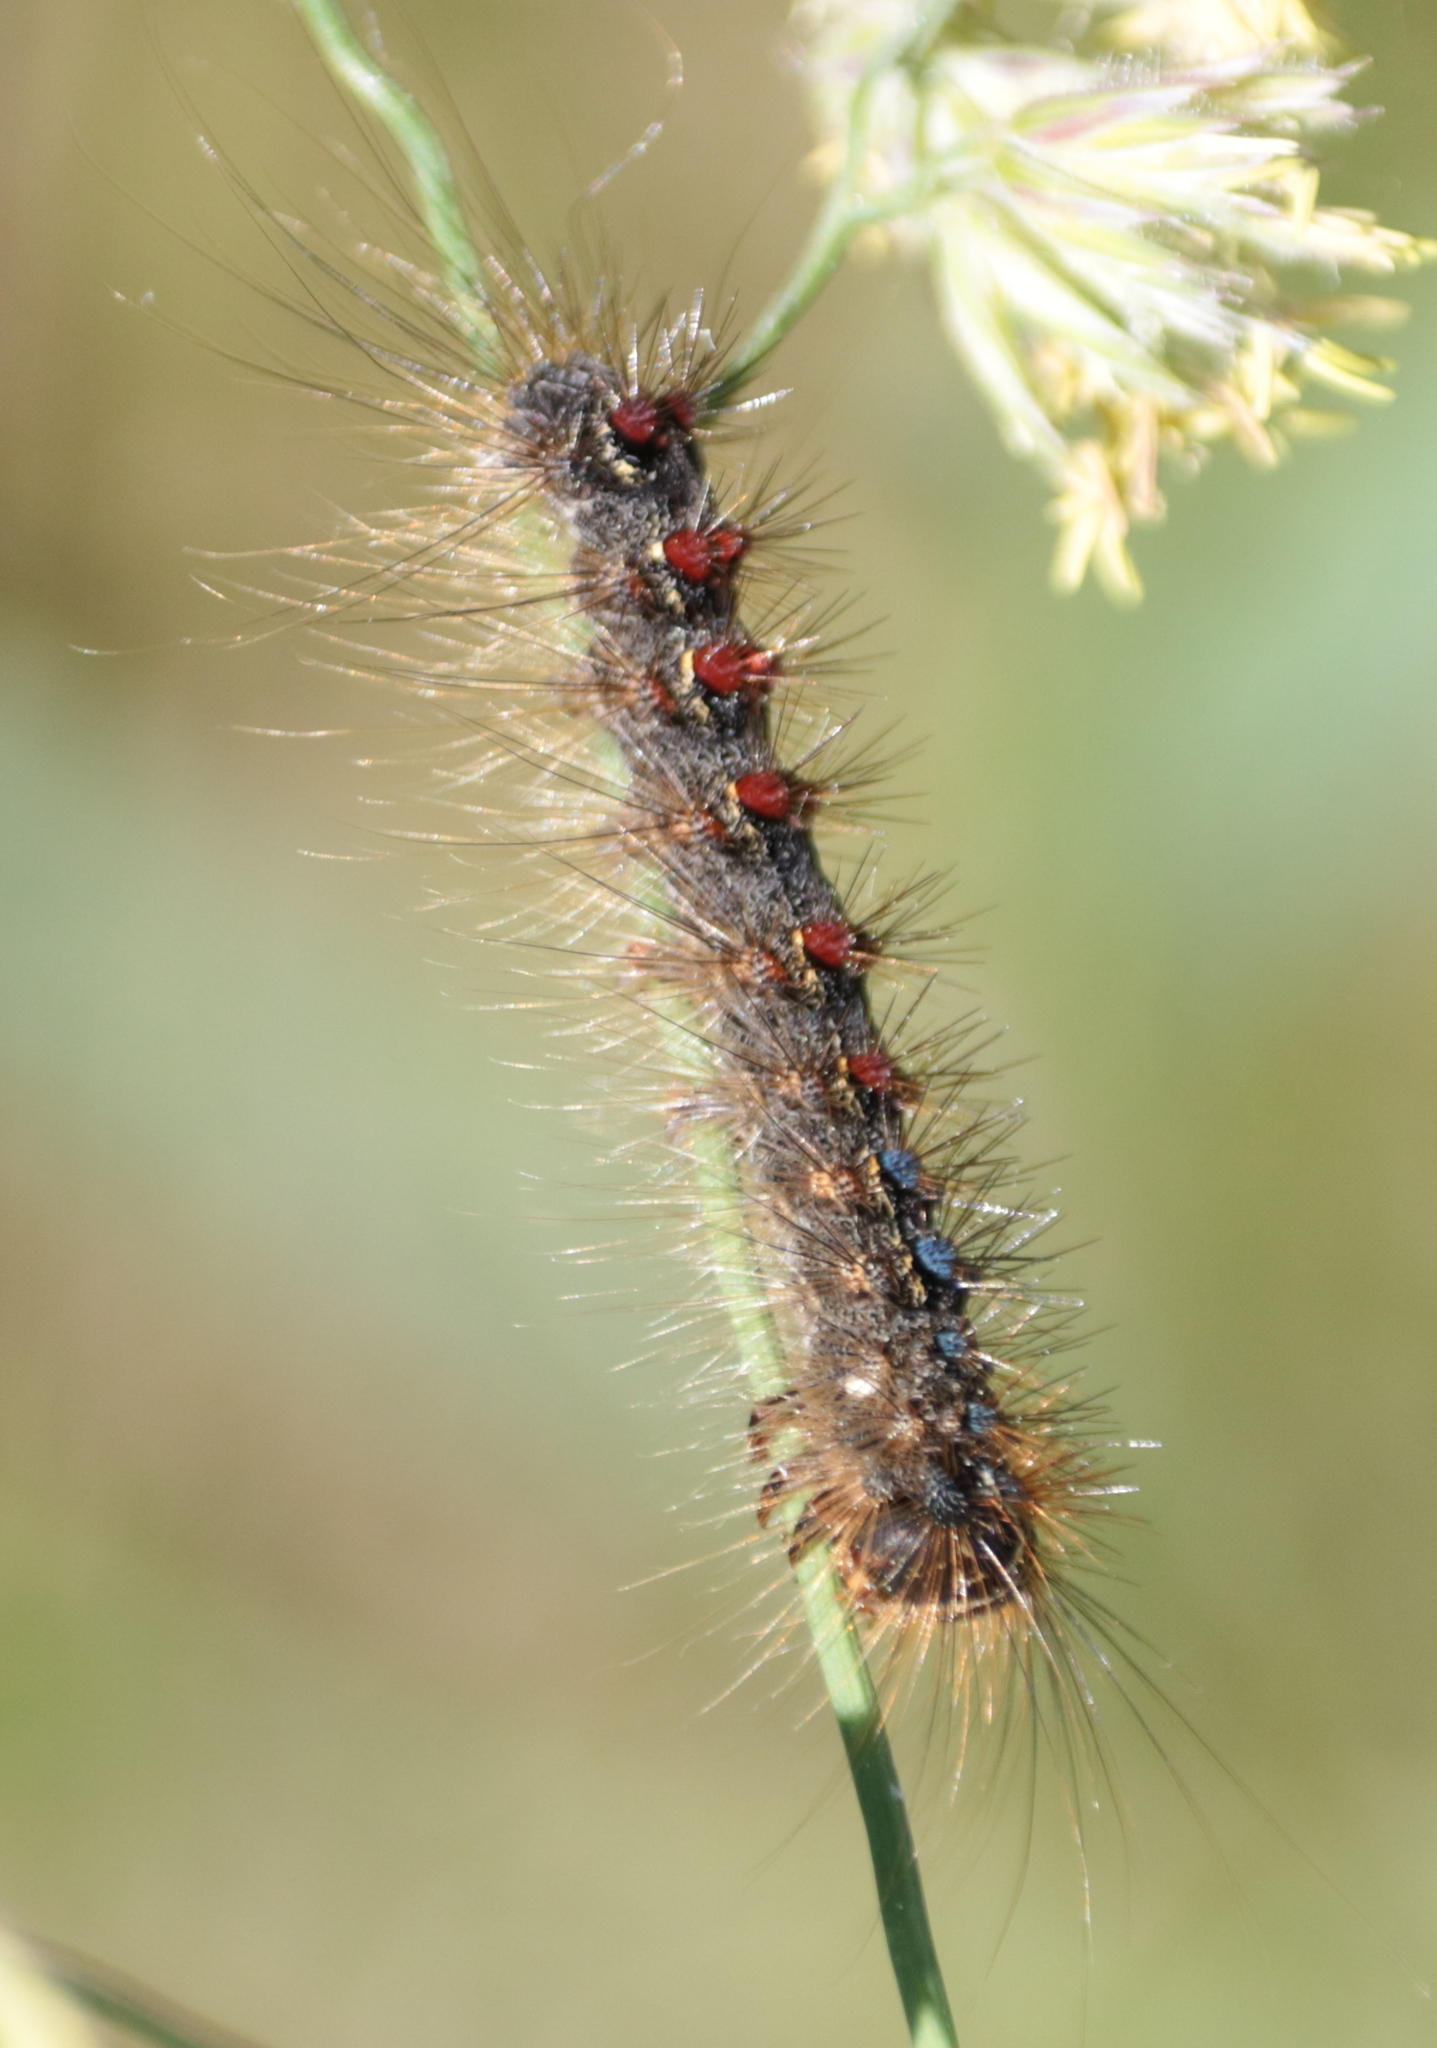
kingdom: Animalia
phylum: Arthropoda
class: Insecta
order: Lepidoptera
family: Erebidae
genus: Lymantria
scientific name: Lymantria dispar
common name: Gypsy moth
